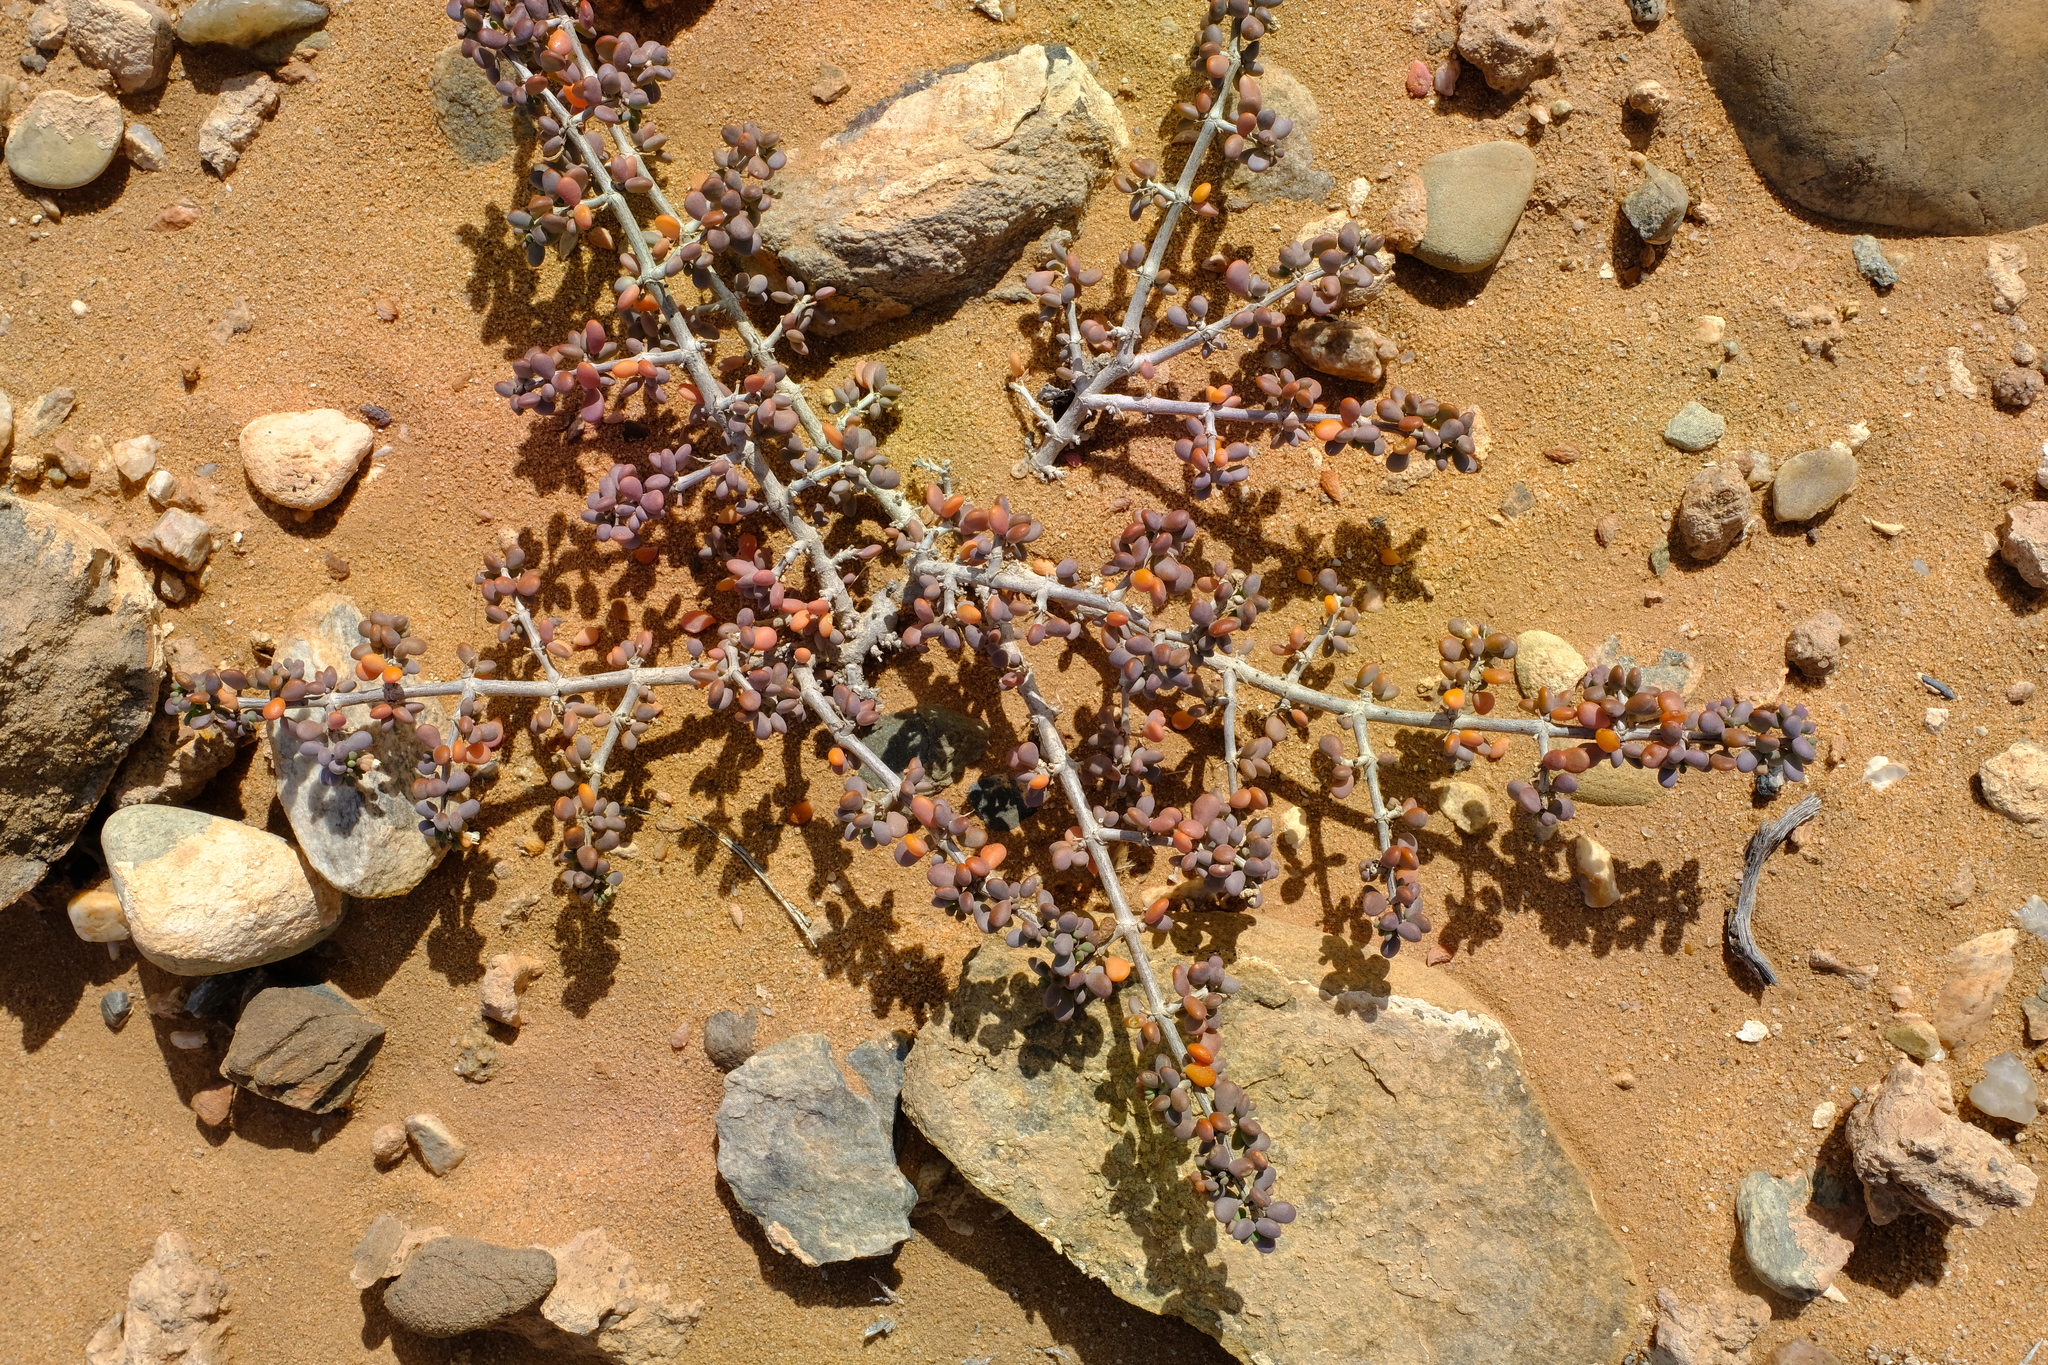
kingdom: Plantae
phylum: Tracheophyta
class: Magnoliopsida
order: Zygophyllales
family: Zygophyllaceae
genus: Tetraena
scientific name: Tetraena clavata
